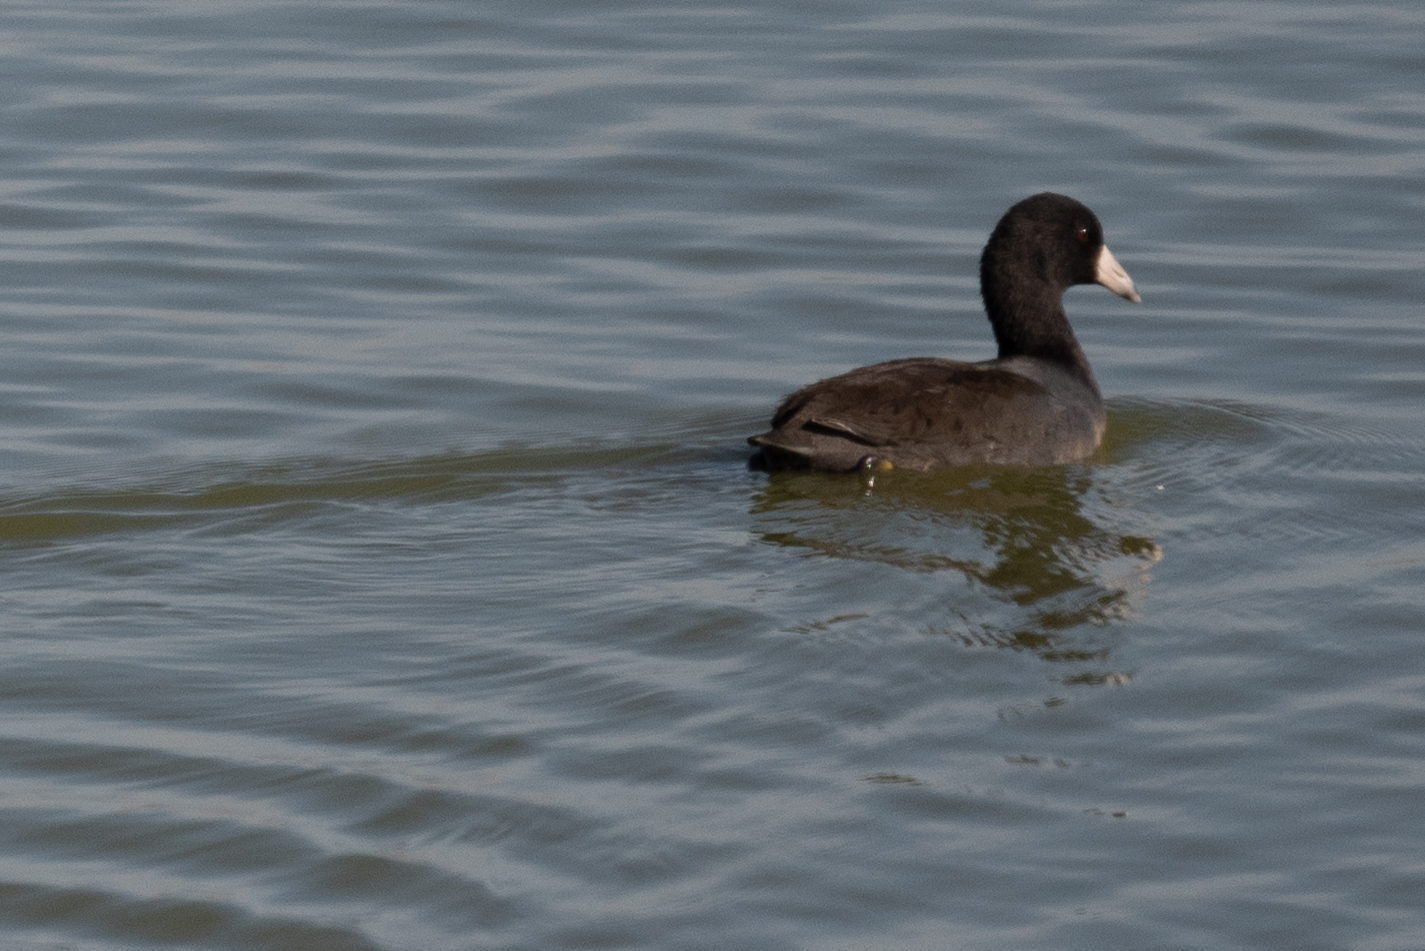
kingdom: Animalia
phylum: Chordata
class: Aves
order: Gruiformes
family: Rallidae
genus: Fulica
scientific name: Fulica americana
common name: American coot
